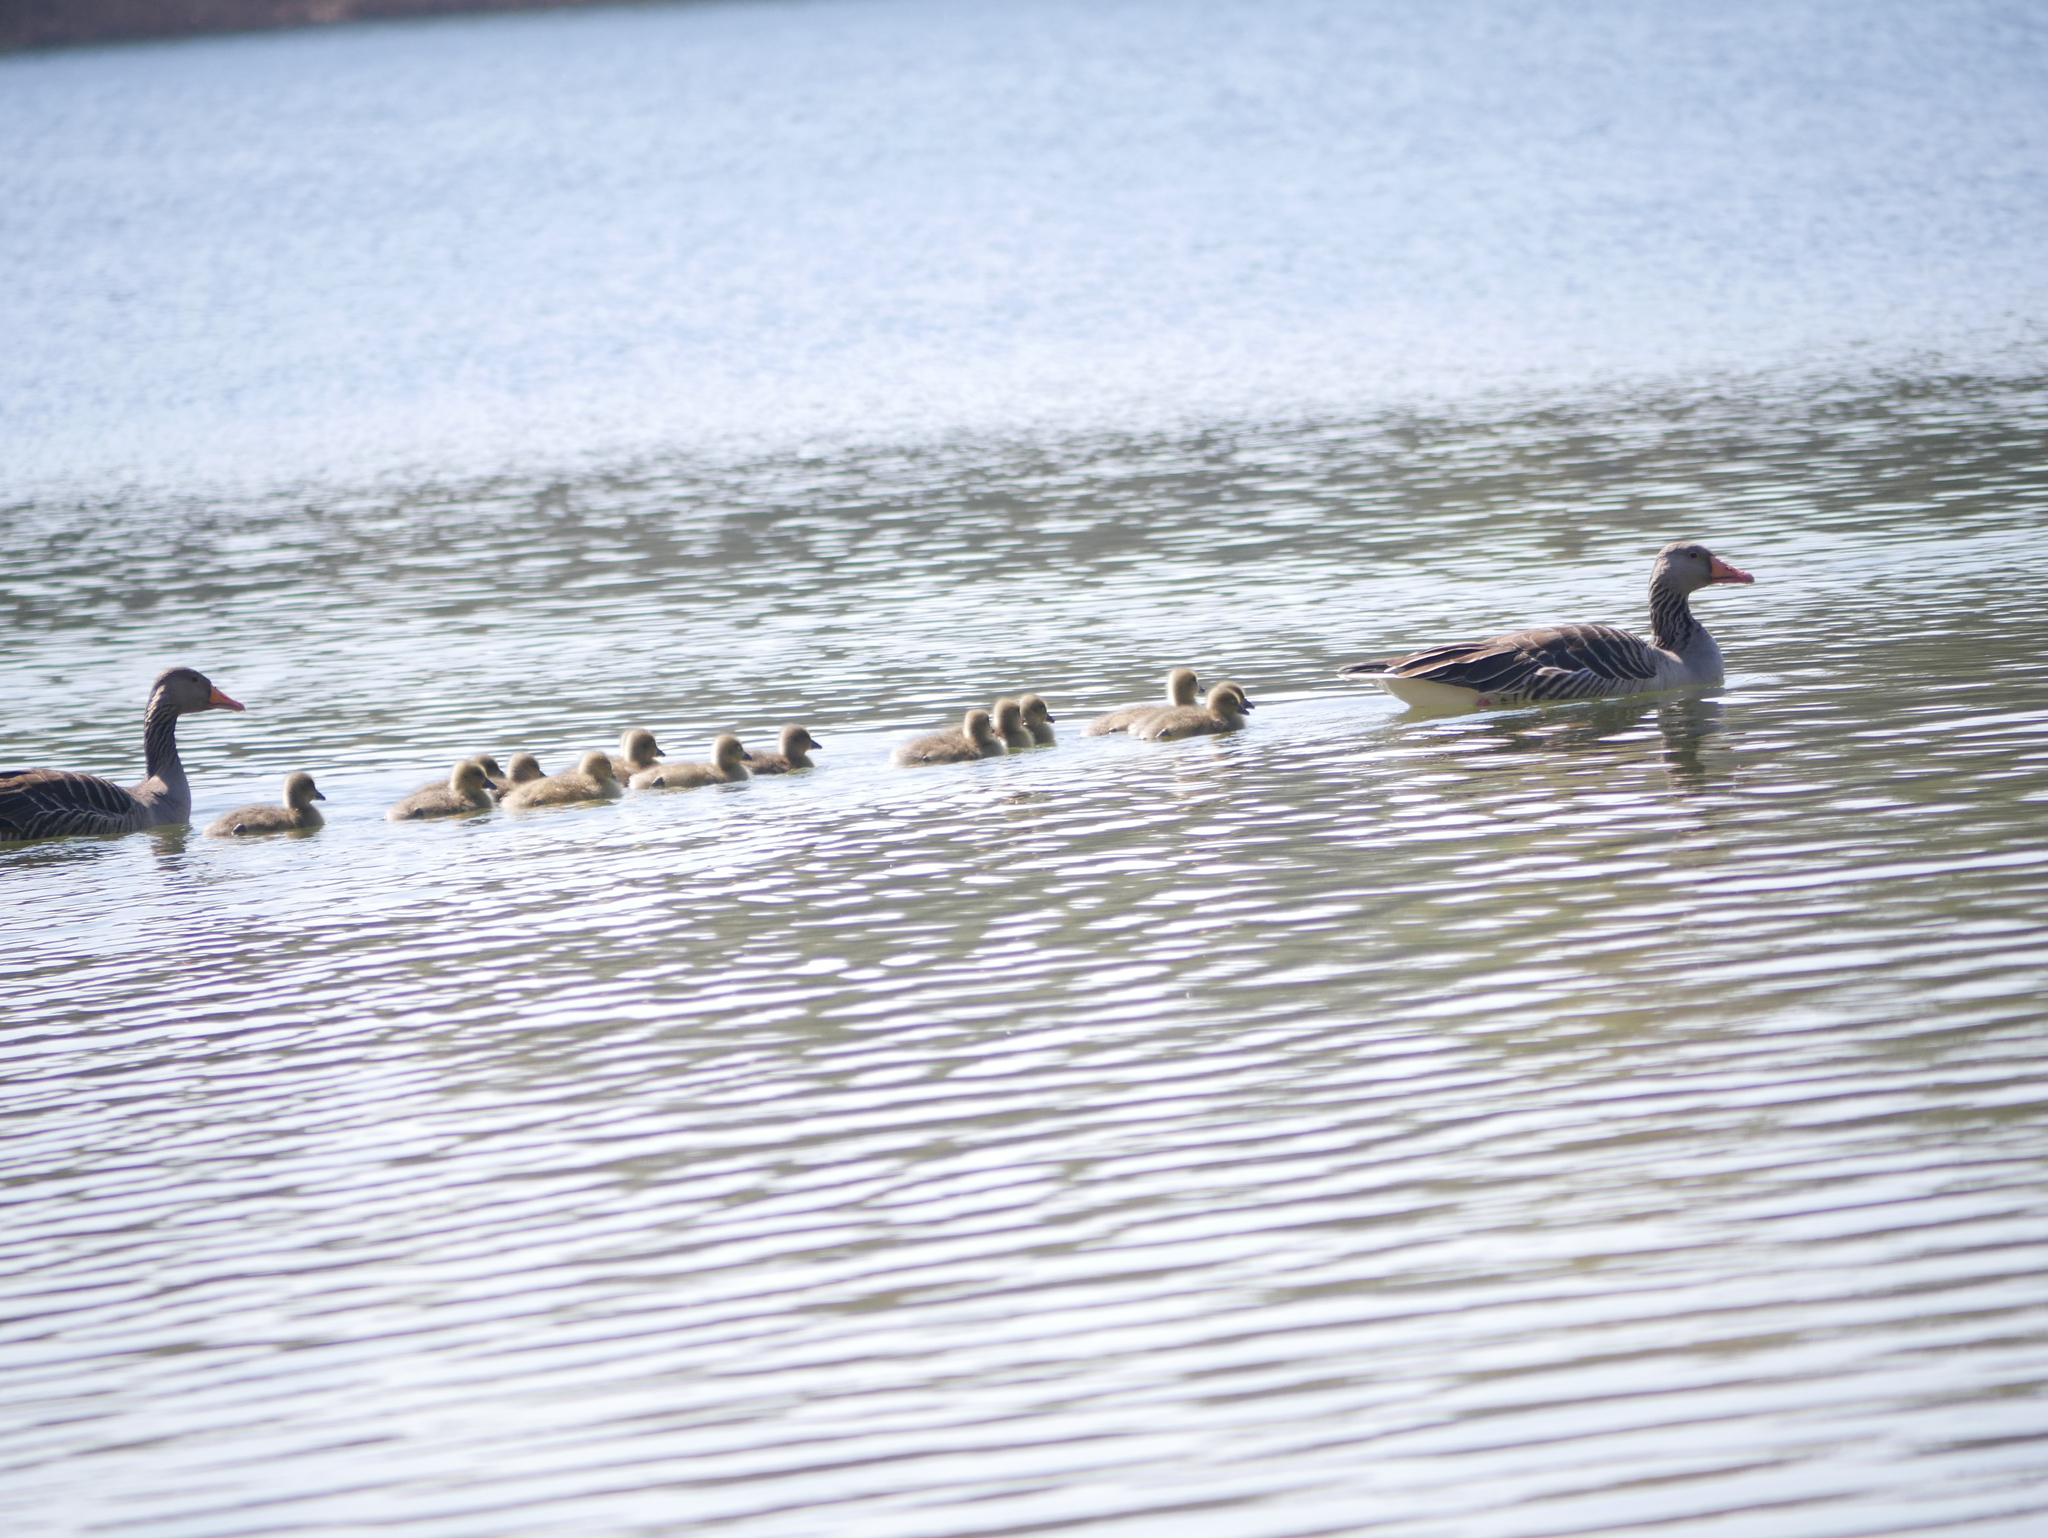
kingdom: Animalia
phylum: Chordata
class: Aves
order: Anseriformes
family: Anatidae
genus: Anser
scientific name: Anser anser
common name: Greylag goose
